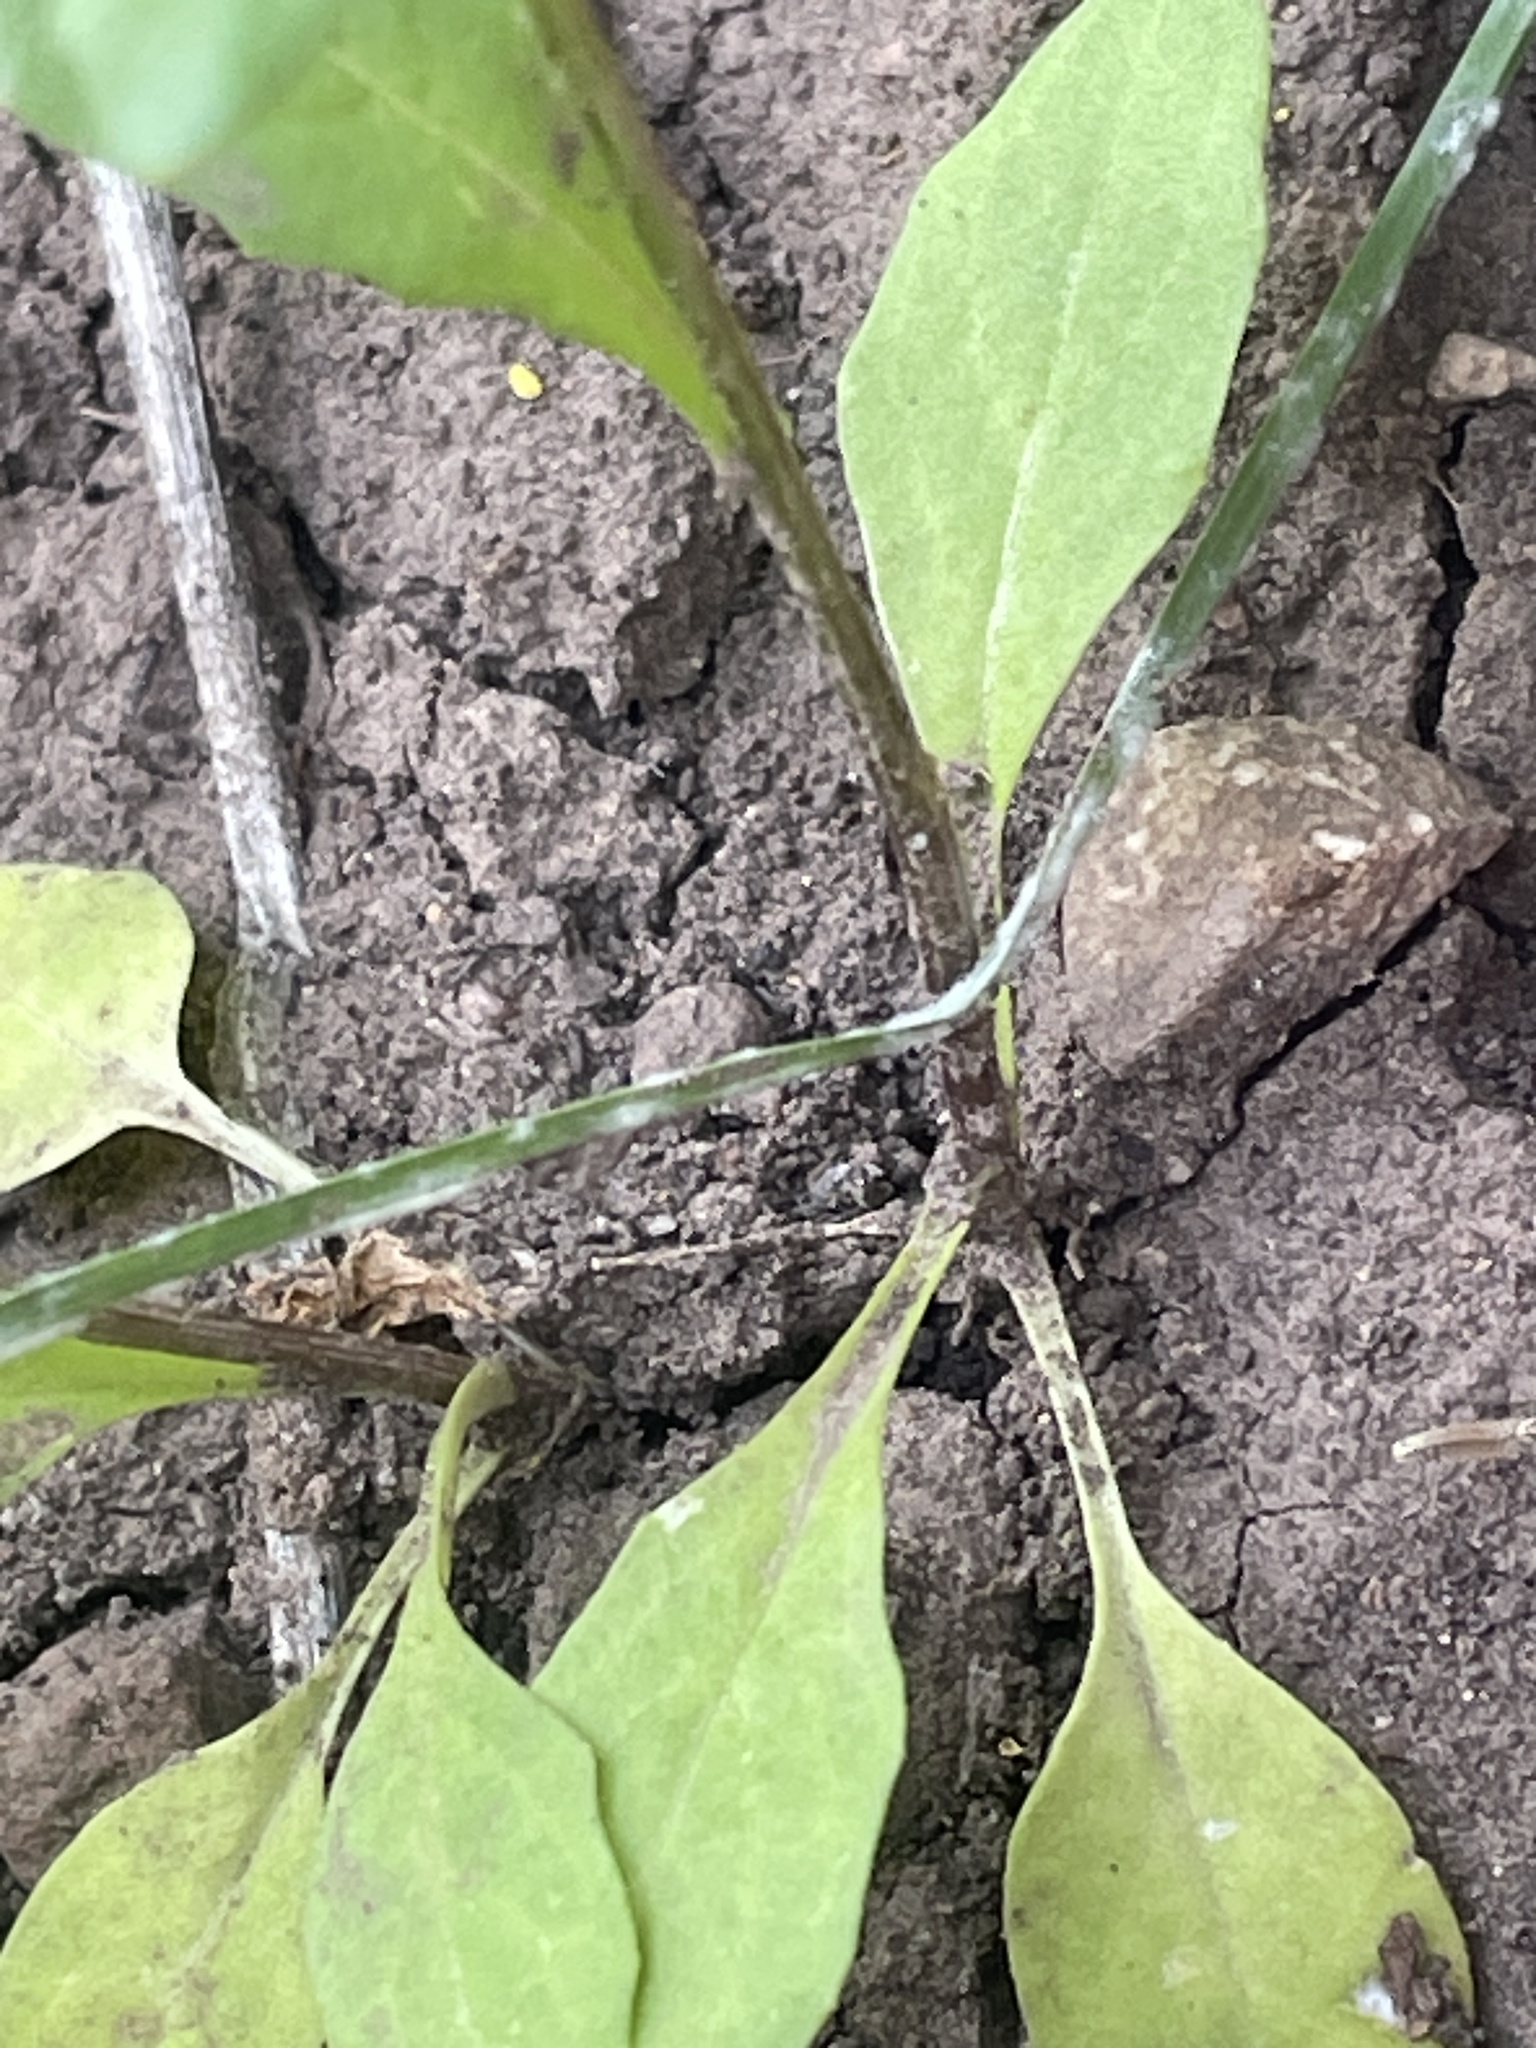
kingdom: Plantae
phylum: Tracheophyta
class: Magnoliopsida
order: Brassicales
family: Brassicaceae
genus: Thlaspi
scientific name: Thlaspi arvense
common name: Field pennycress
